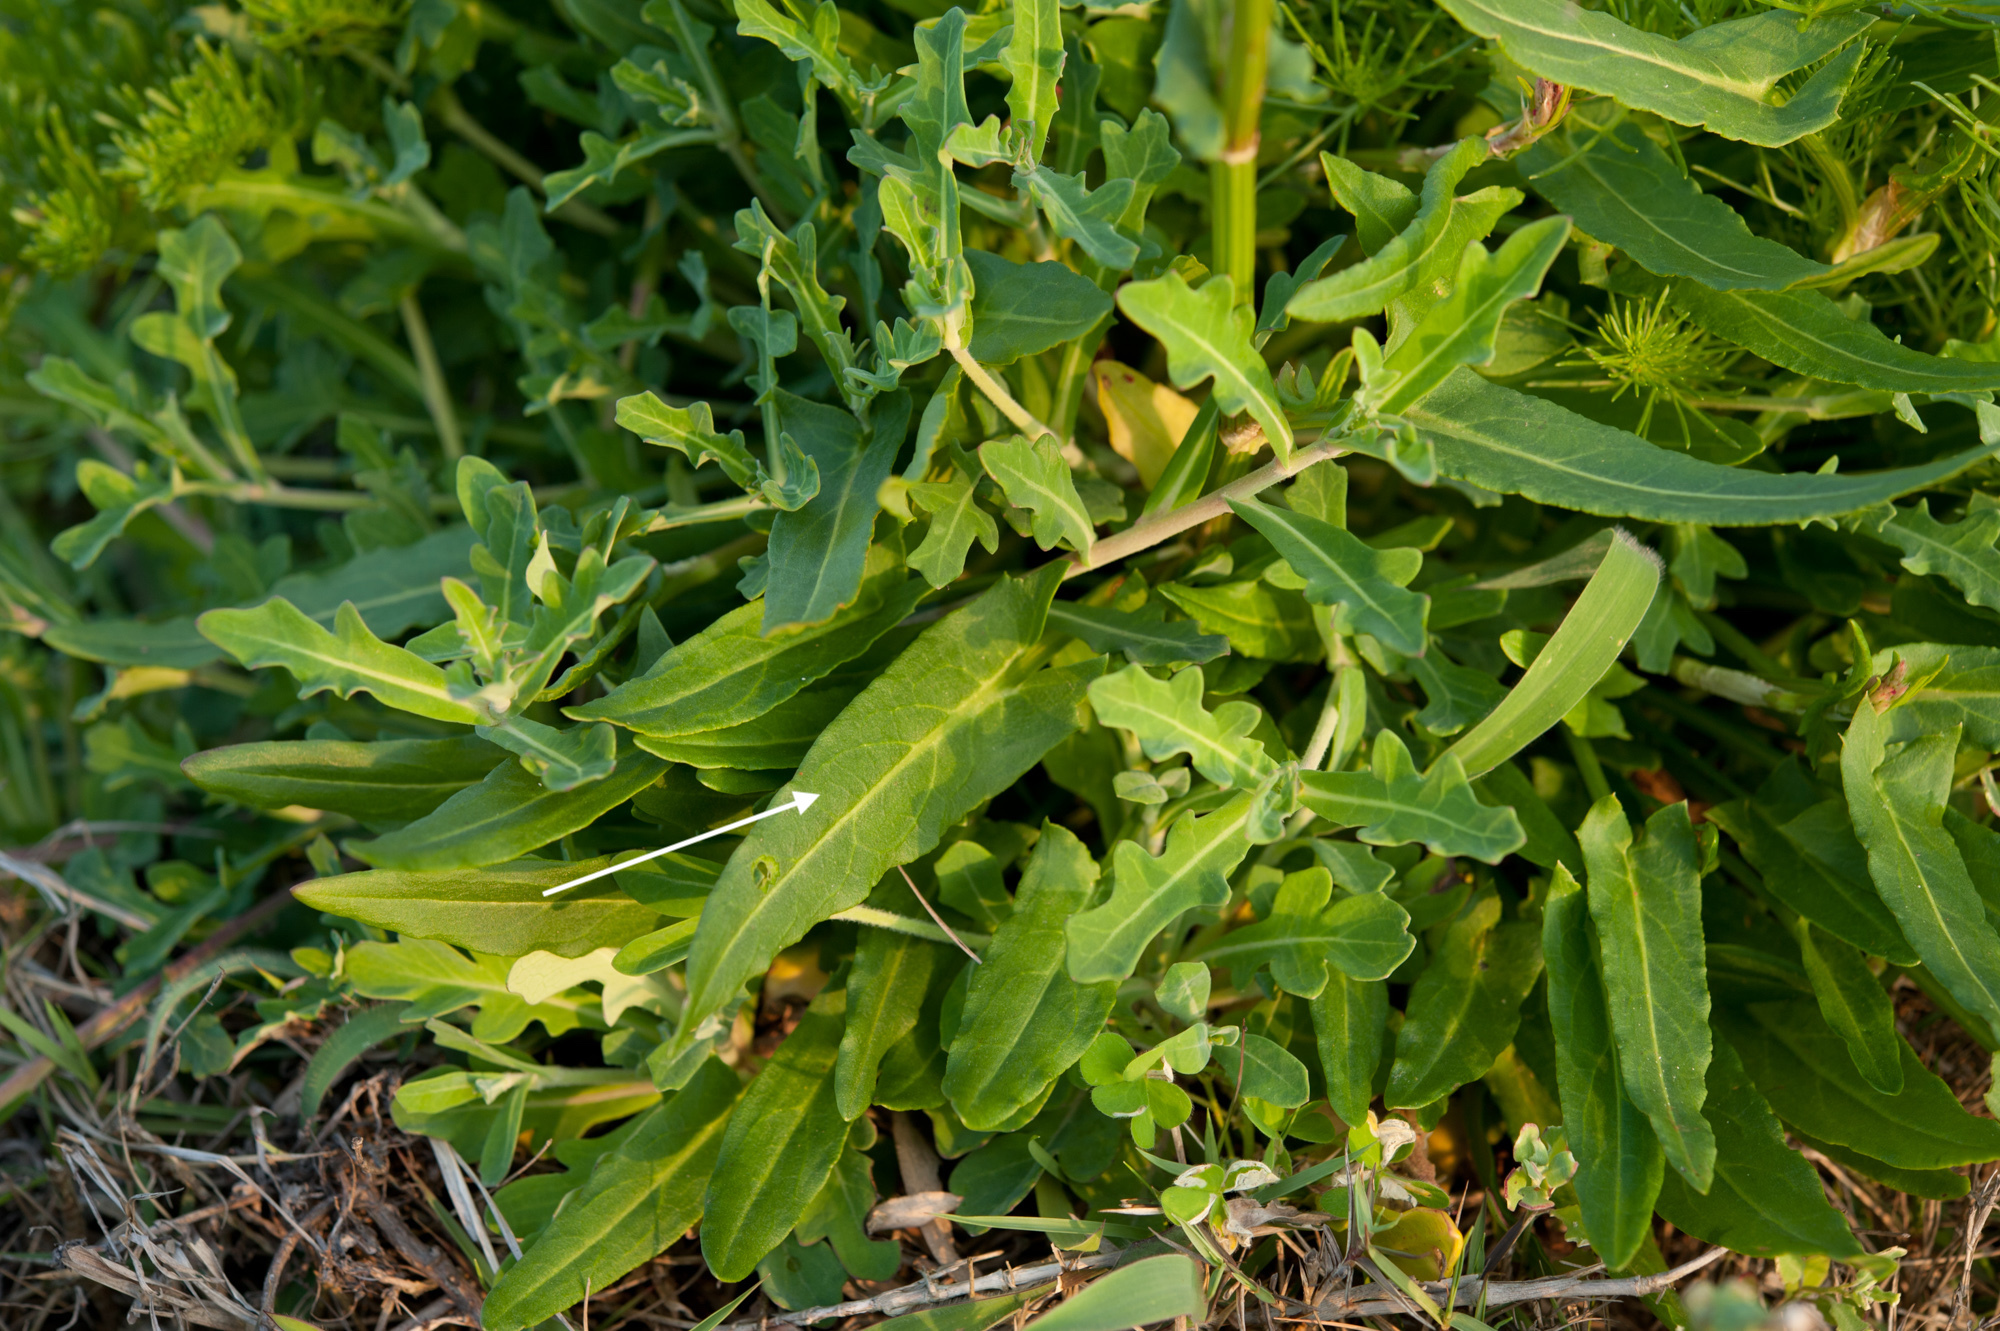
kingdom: Plantae
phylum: Tracheophyta
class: Magnoliopsida
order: Caryophyllales
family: Polygonaceae
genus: Rumex
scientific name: Rumex acetosa
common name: Garden sorrel
